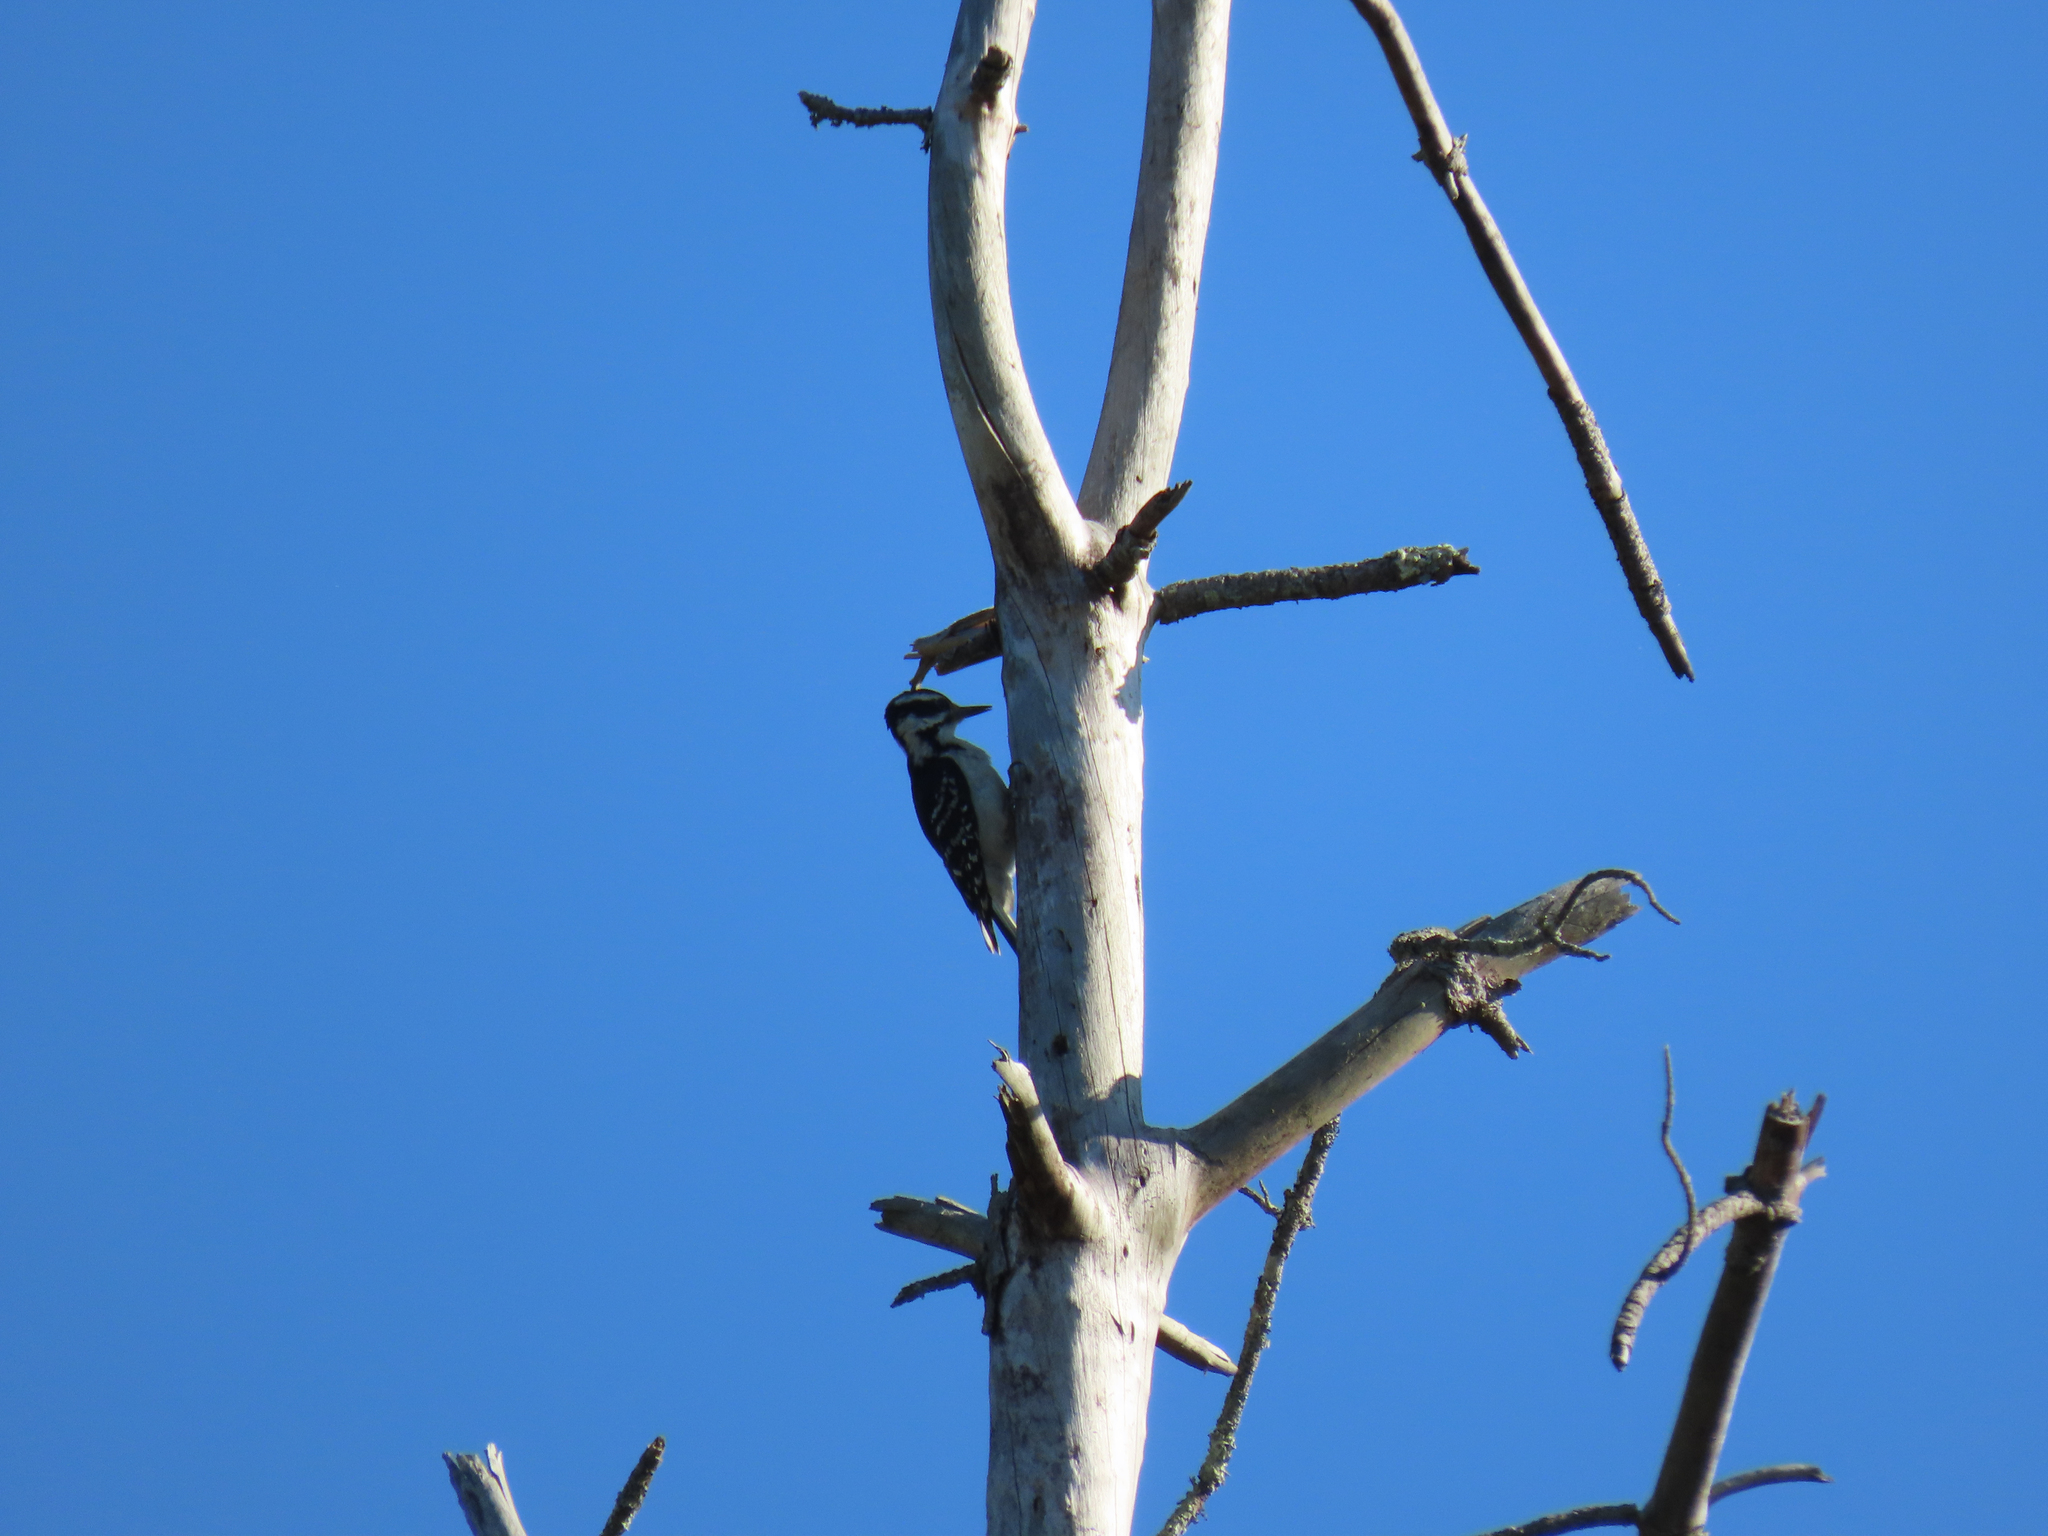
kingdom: Animalia
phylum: Chordata
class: Aves
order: Piciformes
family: Picidae
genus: Leuconotopicus
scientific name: Leuconotopicus villosus
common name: Hairy woodpecker
